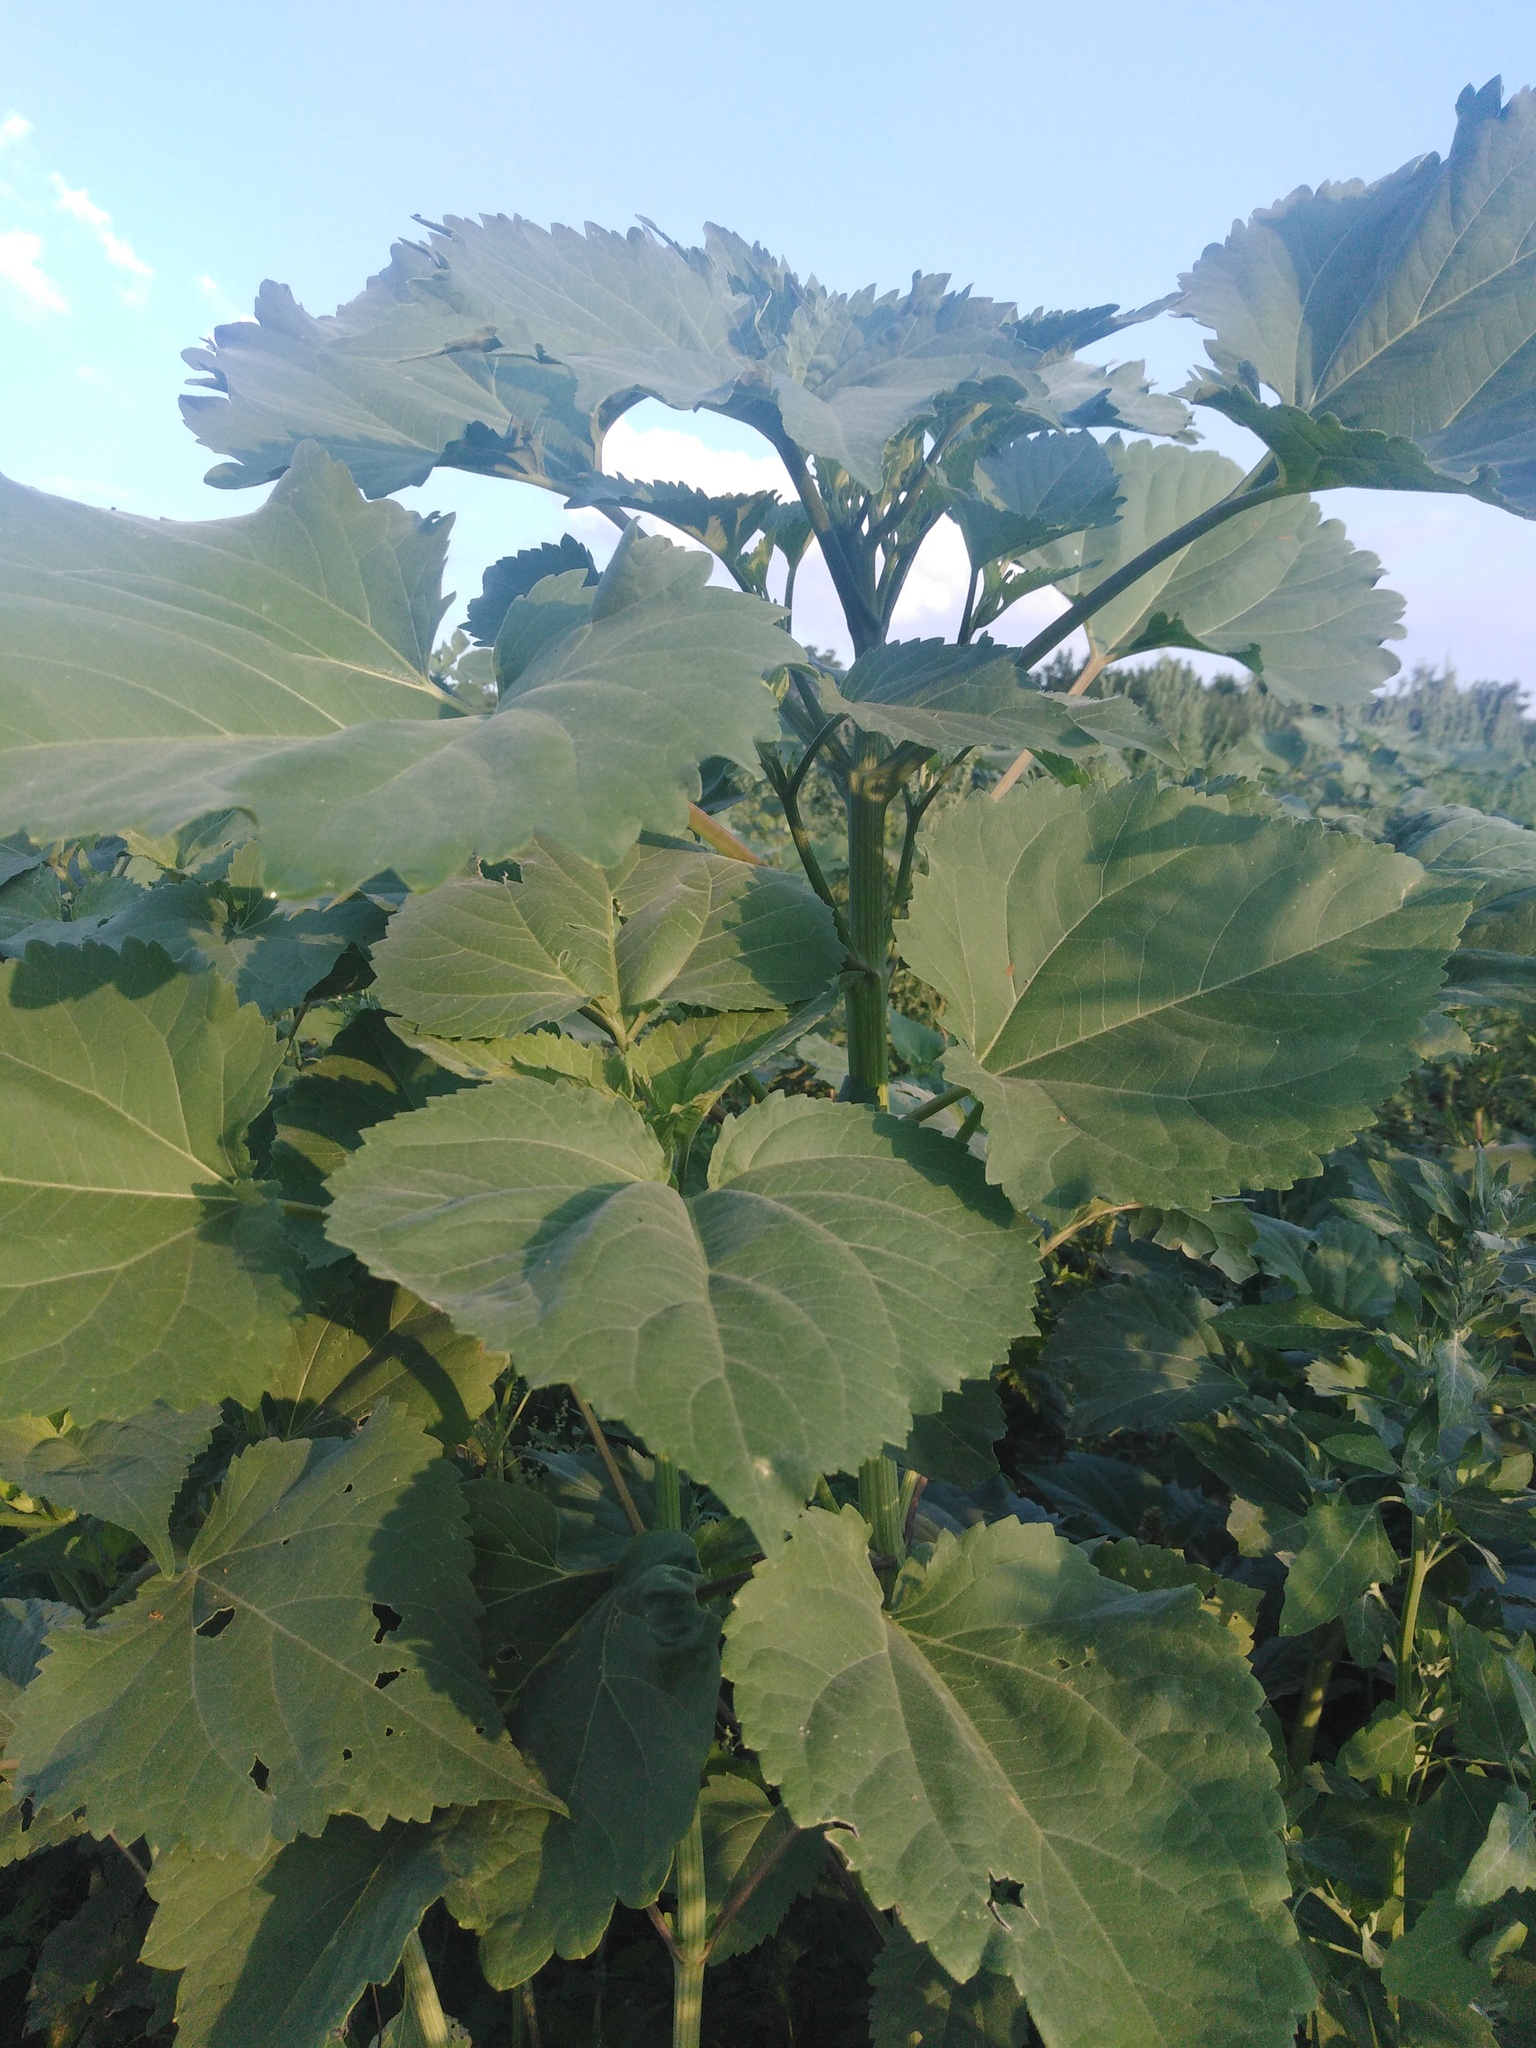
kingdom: Plantae
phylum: Tracheophyta
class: Magnoliopsida
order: Asterales
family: Asteraceae
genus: Cyclachaena
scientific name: Cyclachaena xanthiifolia
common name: Giant sumpweed
